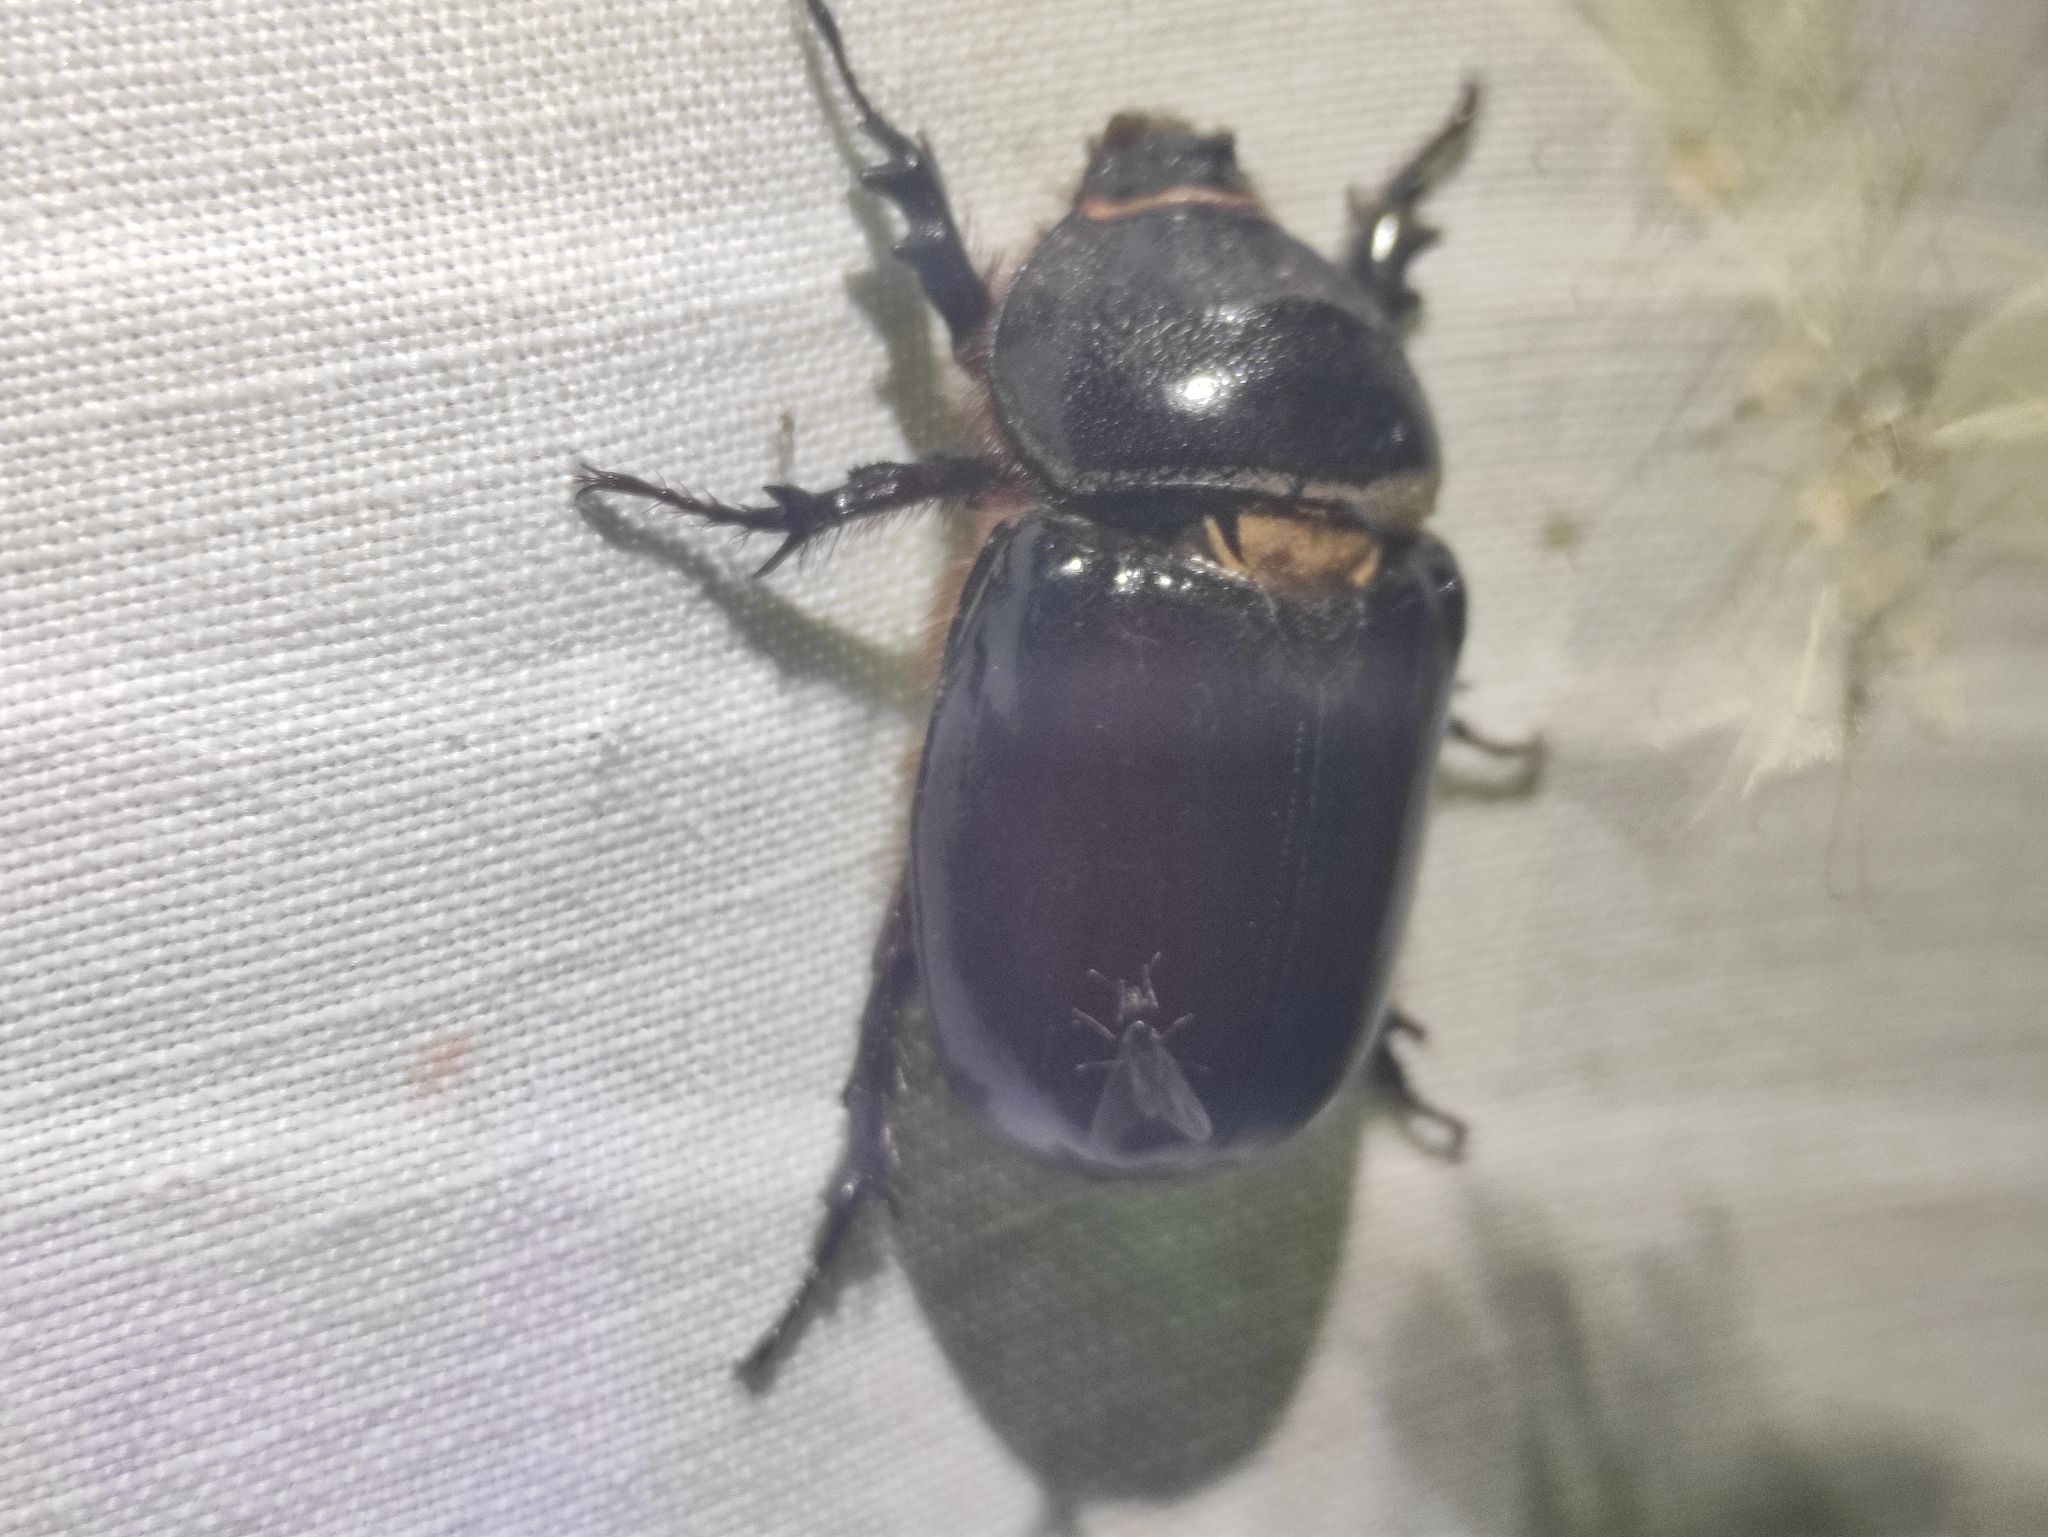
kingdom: Animalia
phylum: Arthropoda
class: Insecta
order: Coleoptera
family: Scarabaeidae
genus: Oryctes
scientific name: Oryctes nasicornis
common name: European rhinoceros beetle
